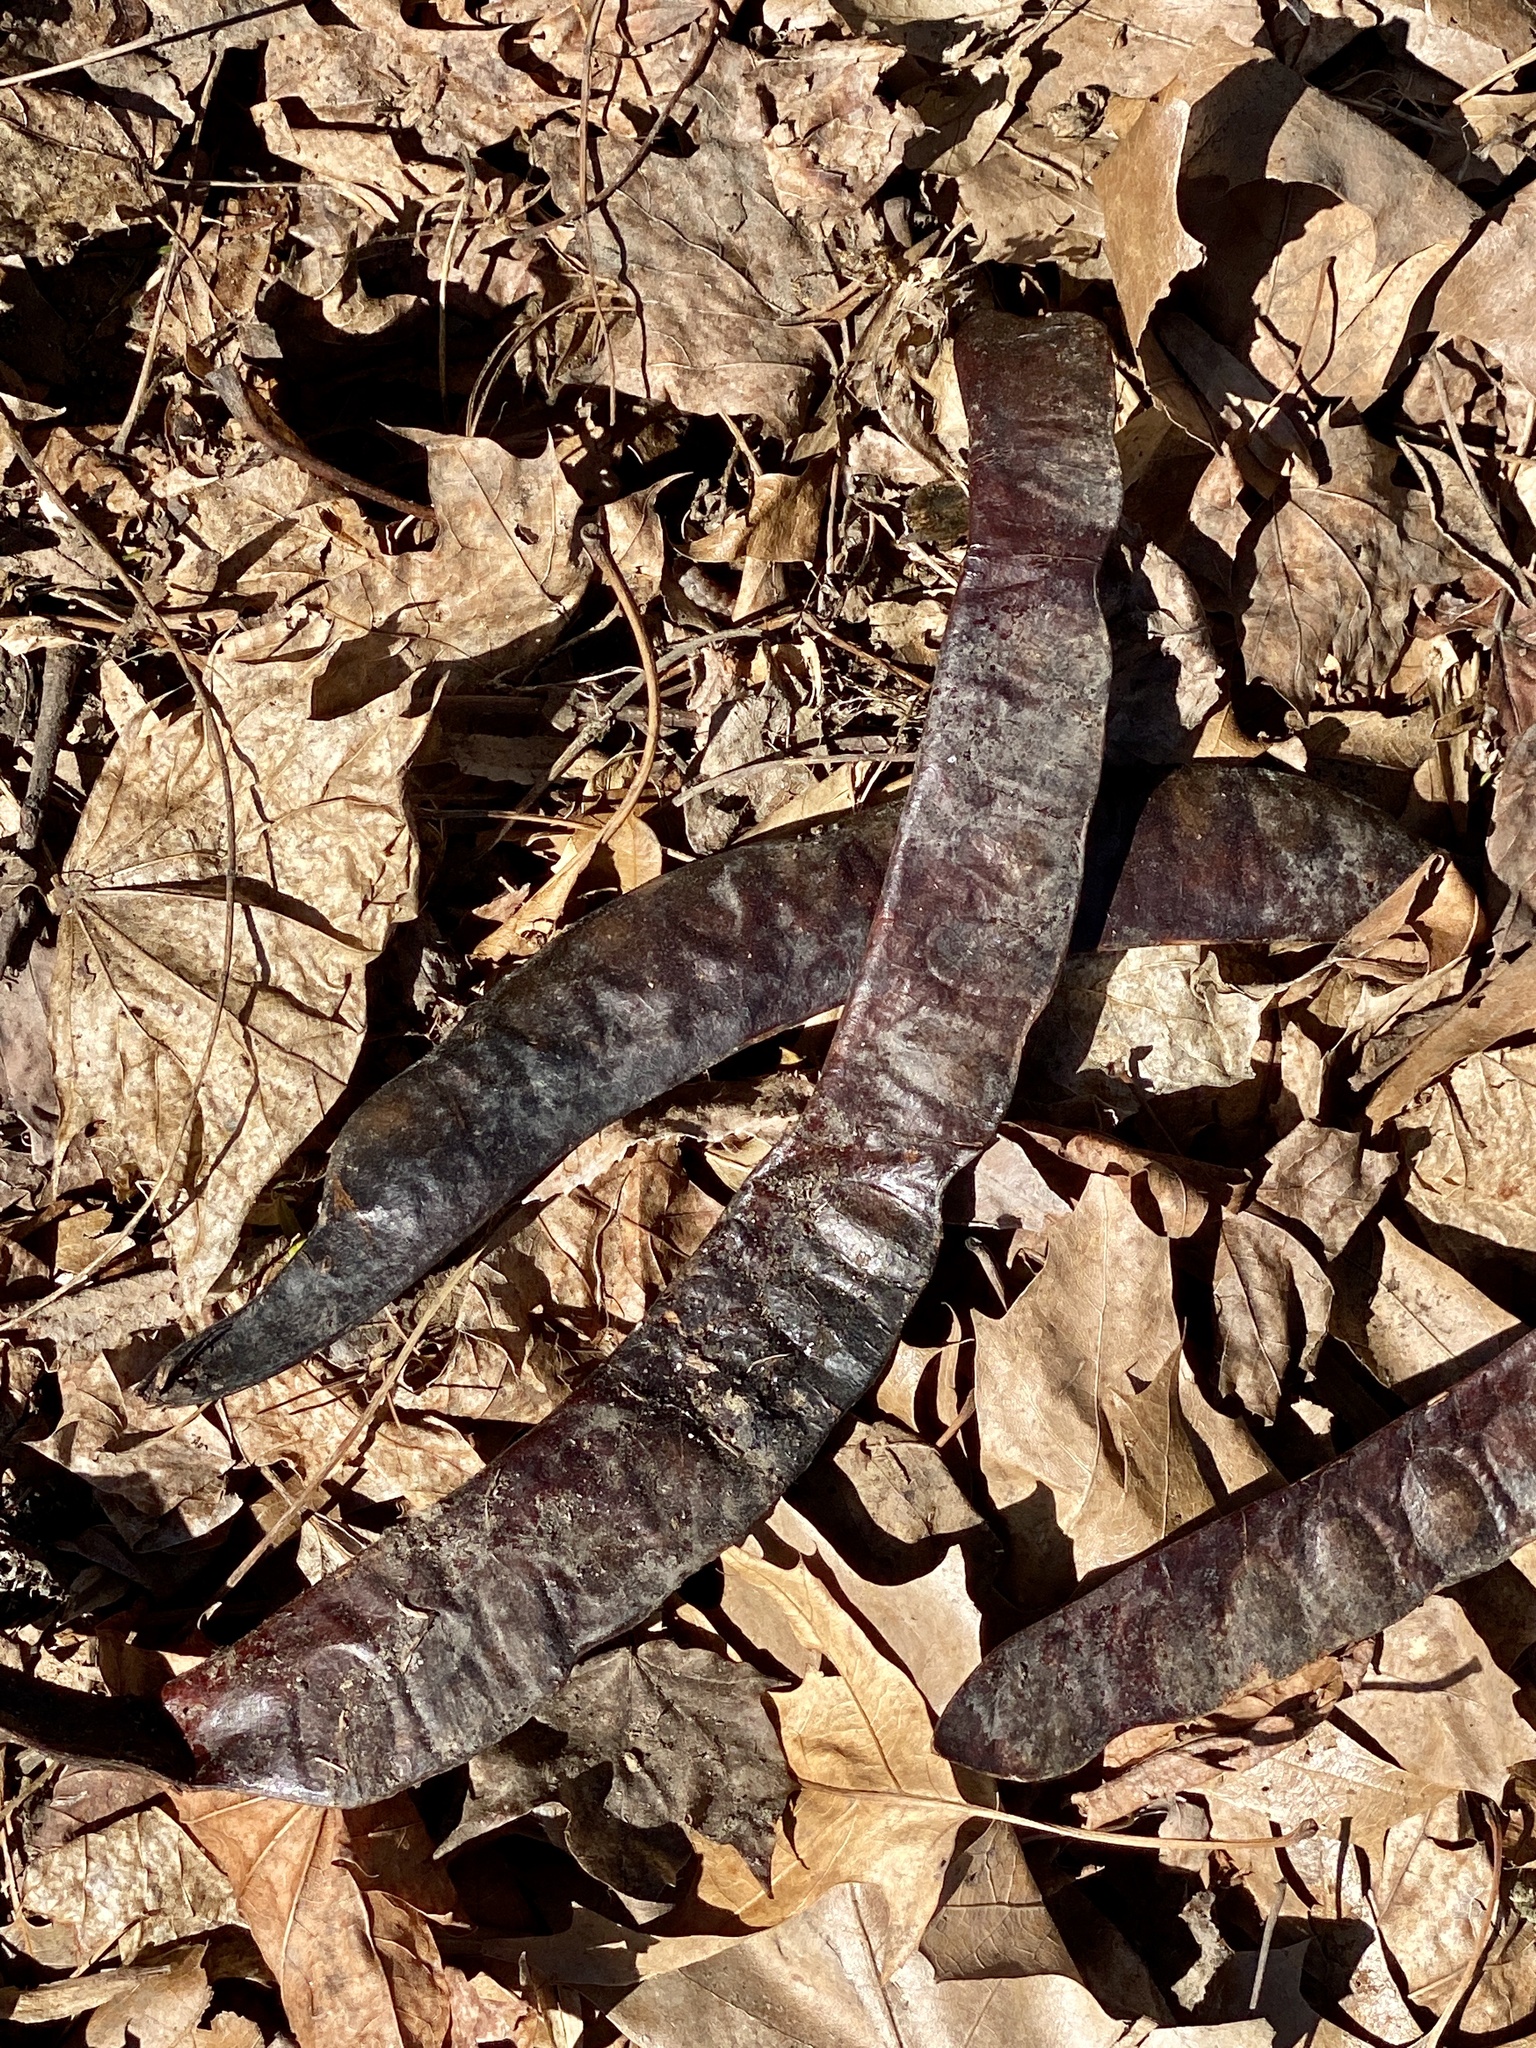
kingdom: Plantae
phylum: Tracheophyta
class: Magnoliopsida
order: Fabales
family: Fabaceae
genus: Gleditsia
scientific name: Gleditsia triacanthos
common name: Common honeylocust
